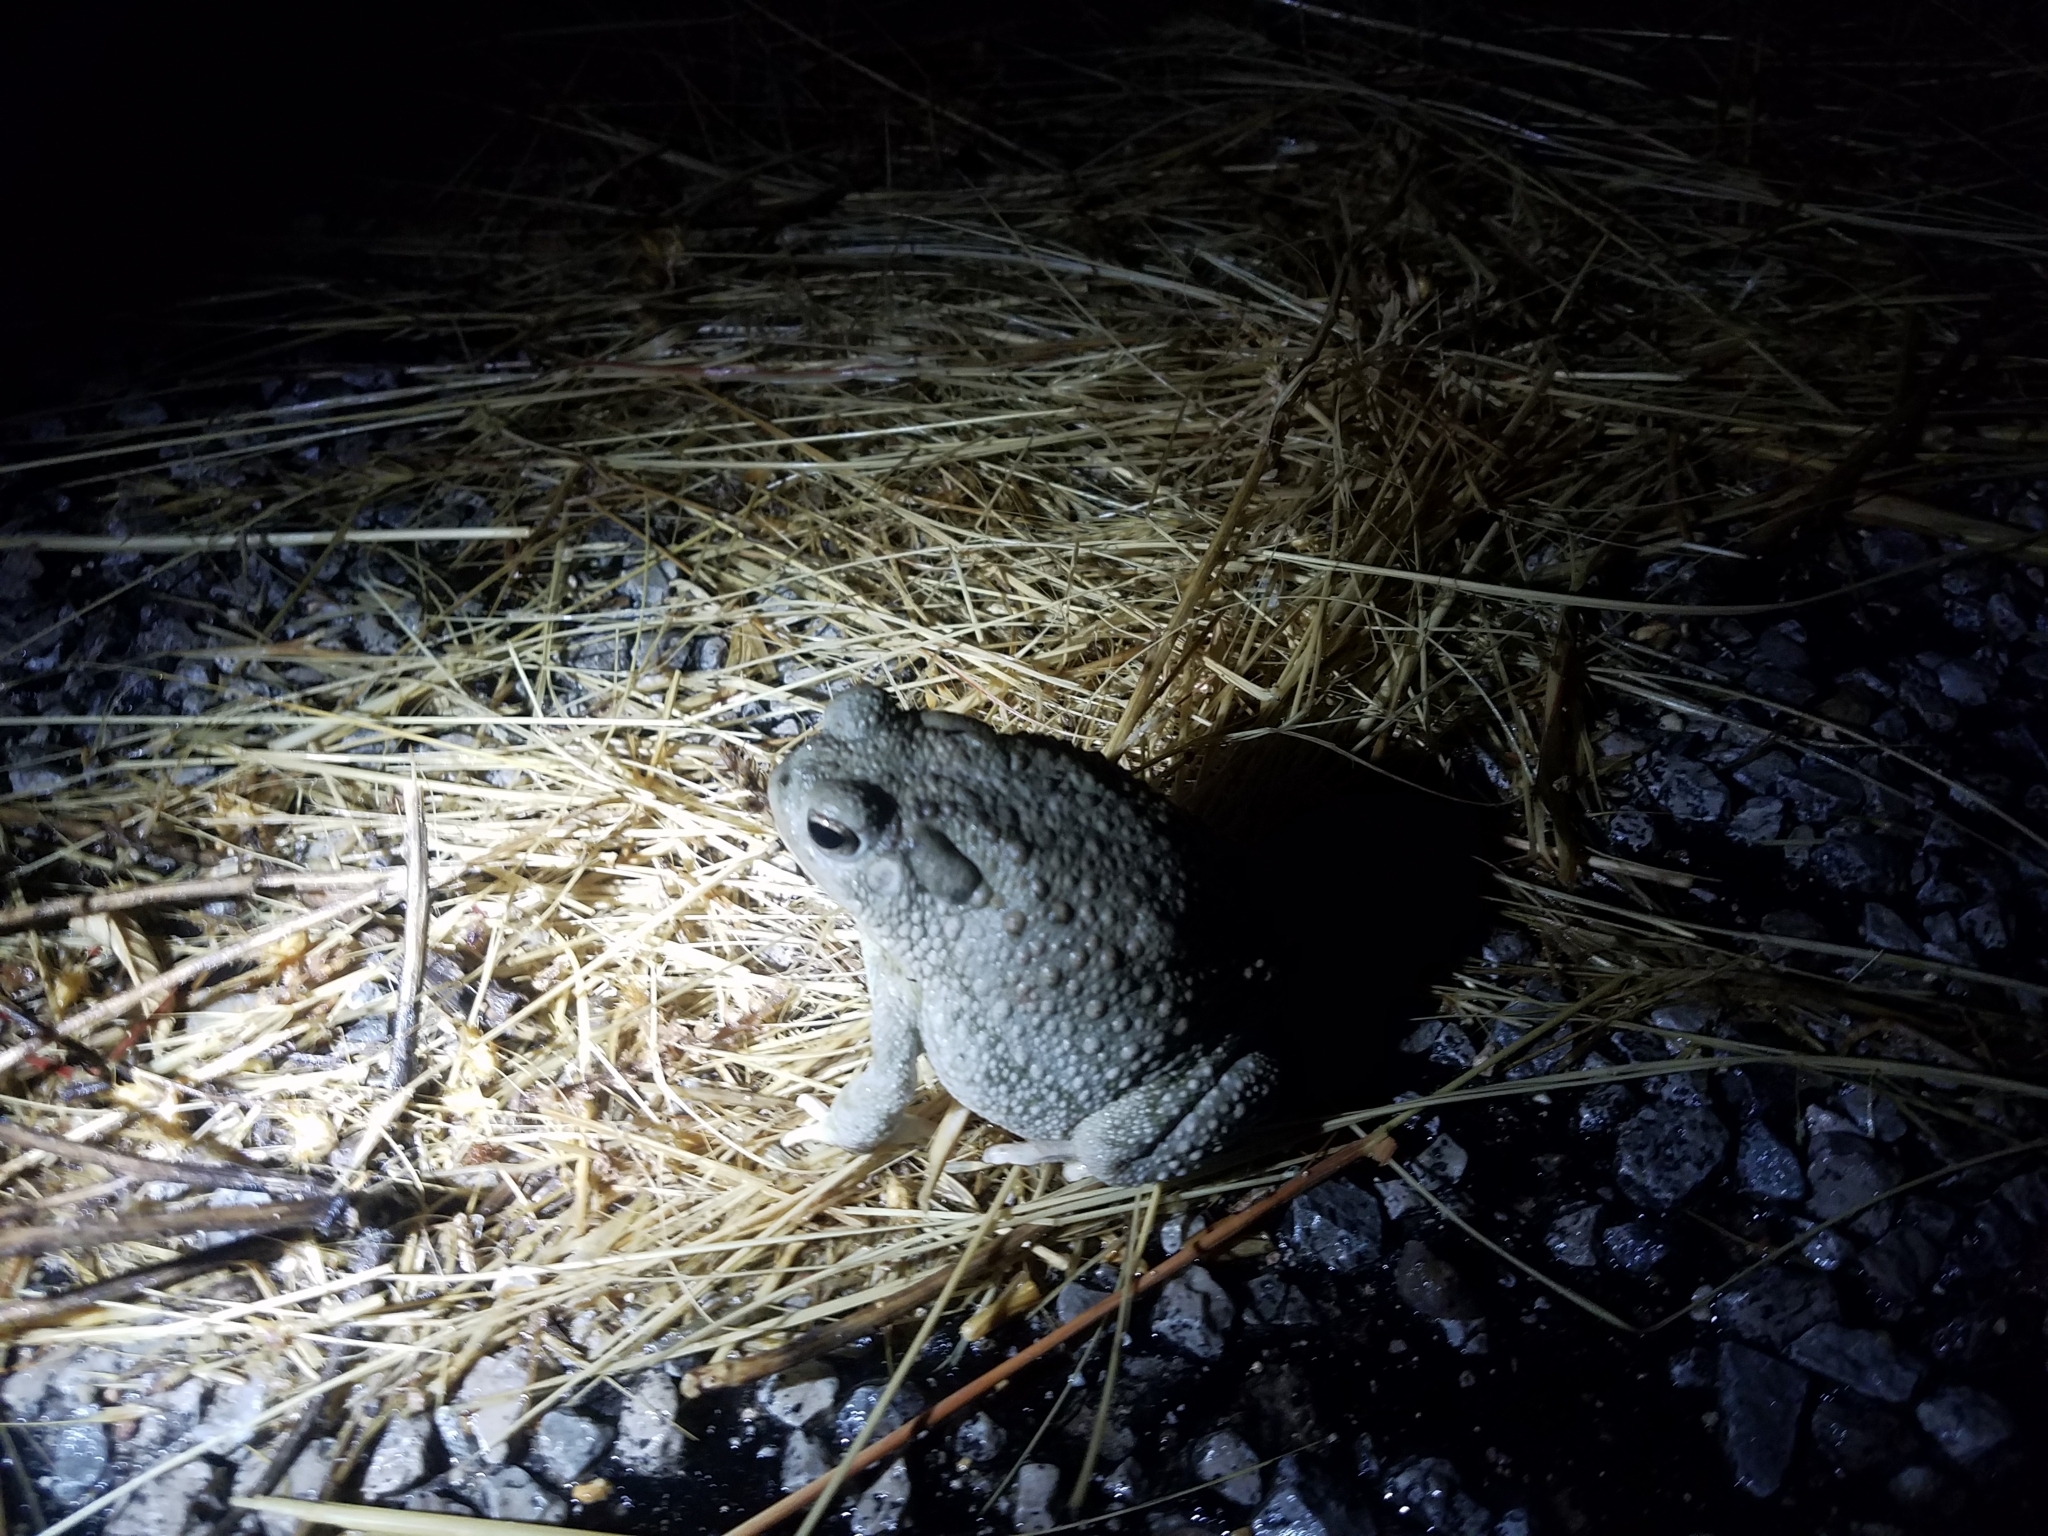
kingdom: Animalia
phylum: Chordata
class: Amphibia
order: Anura
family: Bufonidae
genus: Anaxyrus
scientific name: Anaxyrus speciosus
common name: Texas toad
